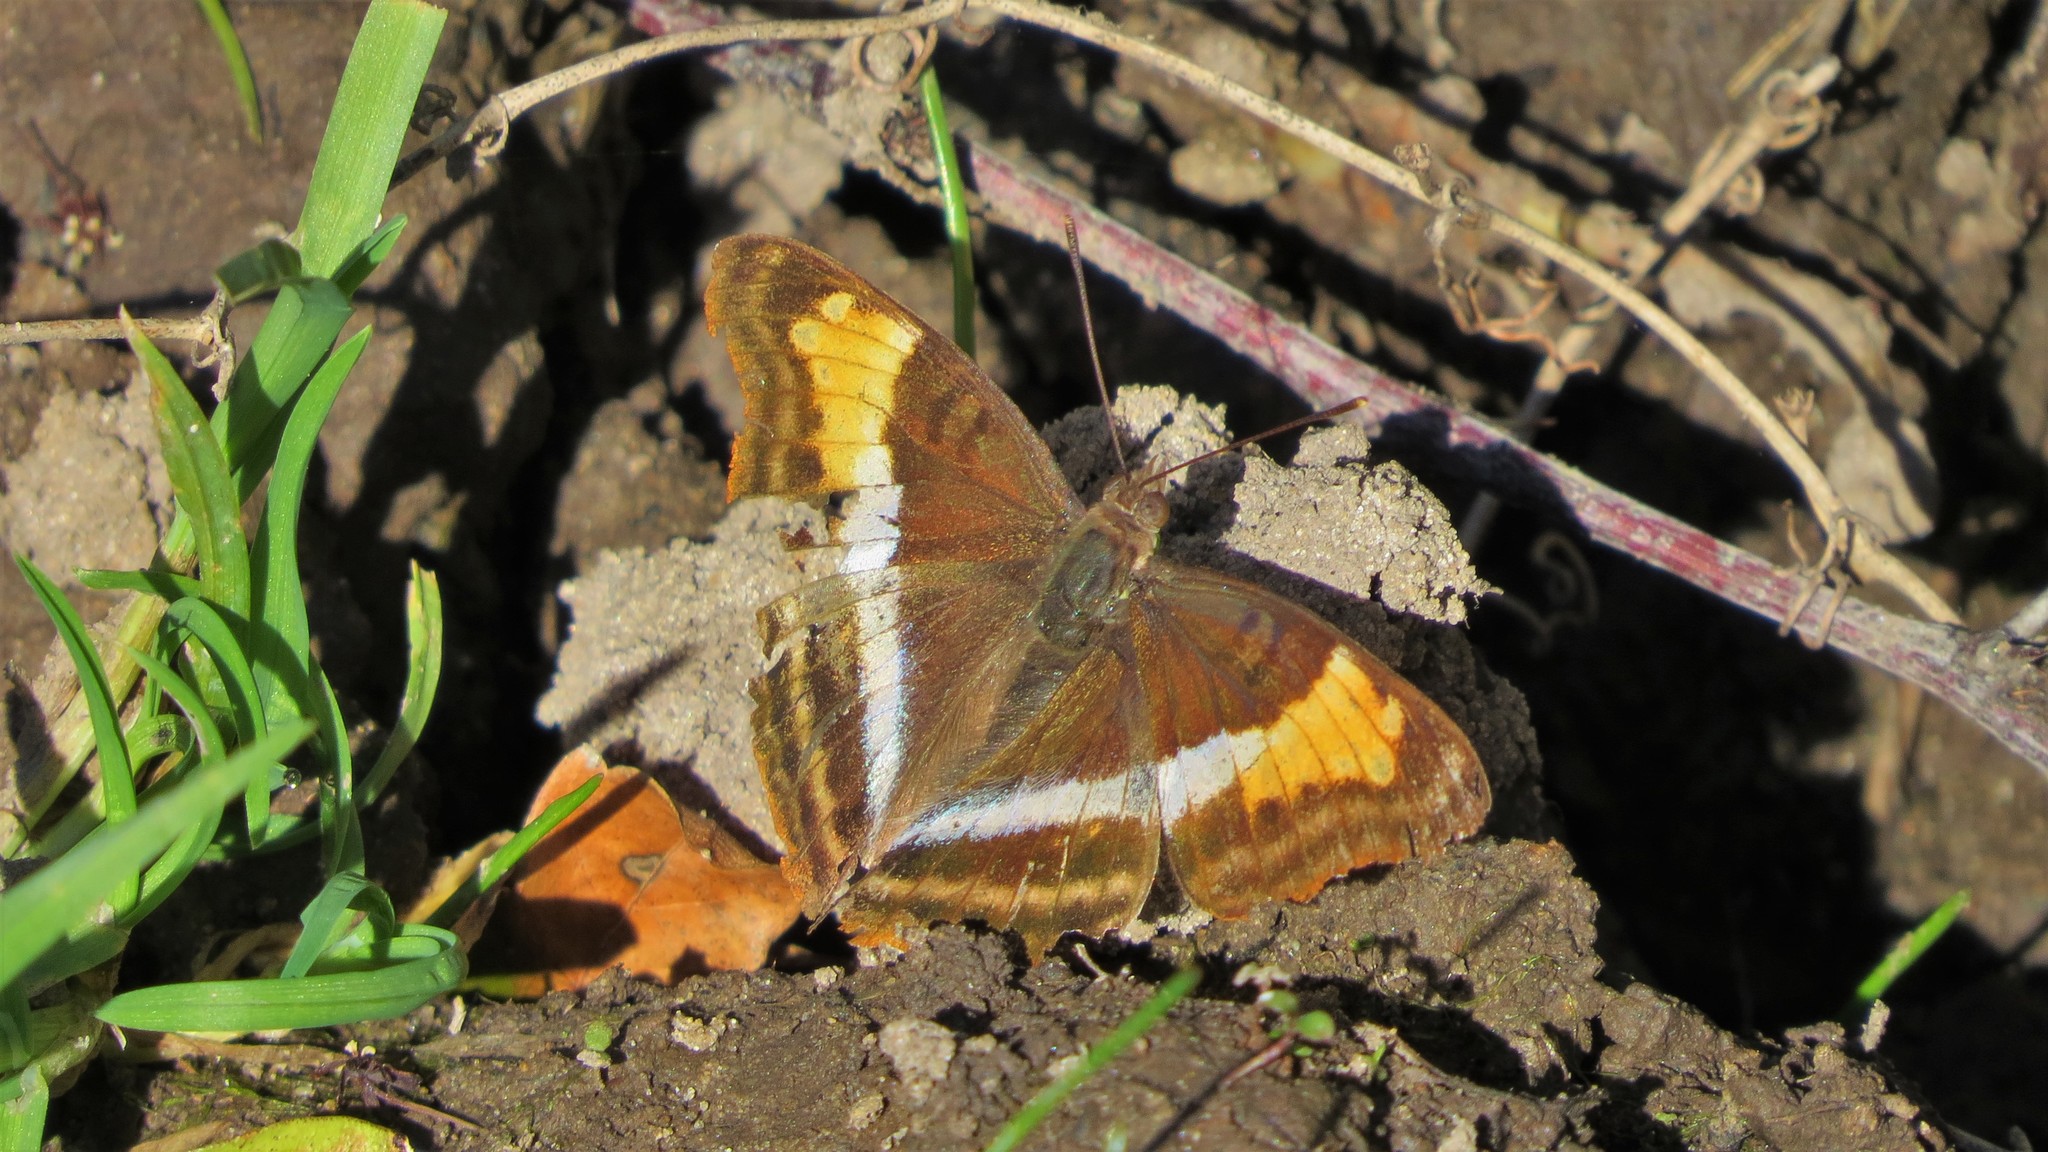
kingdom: Animalia
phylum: Arthropoda
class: Insecta
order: Lepidoptera
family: Nymphalidae
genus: Doxocopa
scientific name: Doxocopa laurentia
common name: Turquoise emperor
